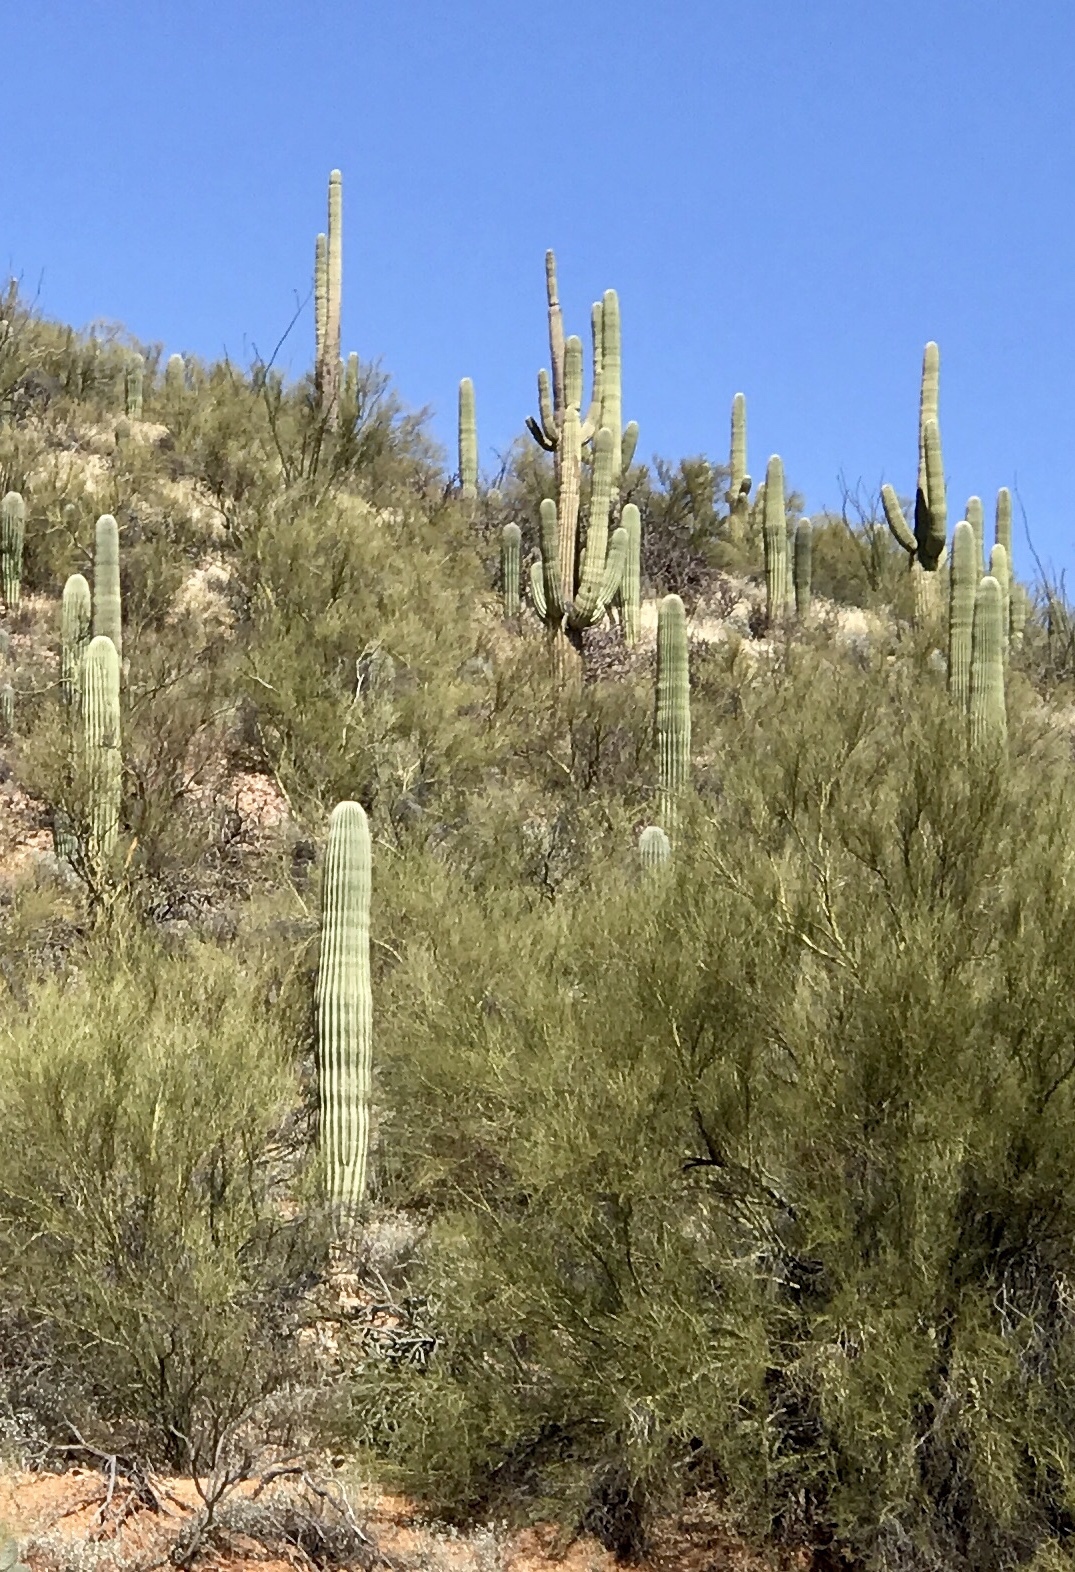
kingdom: Plantae
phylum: Tracheophyta
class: Magnoliopsida
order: Caryophyllales
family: Cactaceae
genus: Carnegiea
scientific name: Carnegiea gigantea
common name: Saguaro
